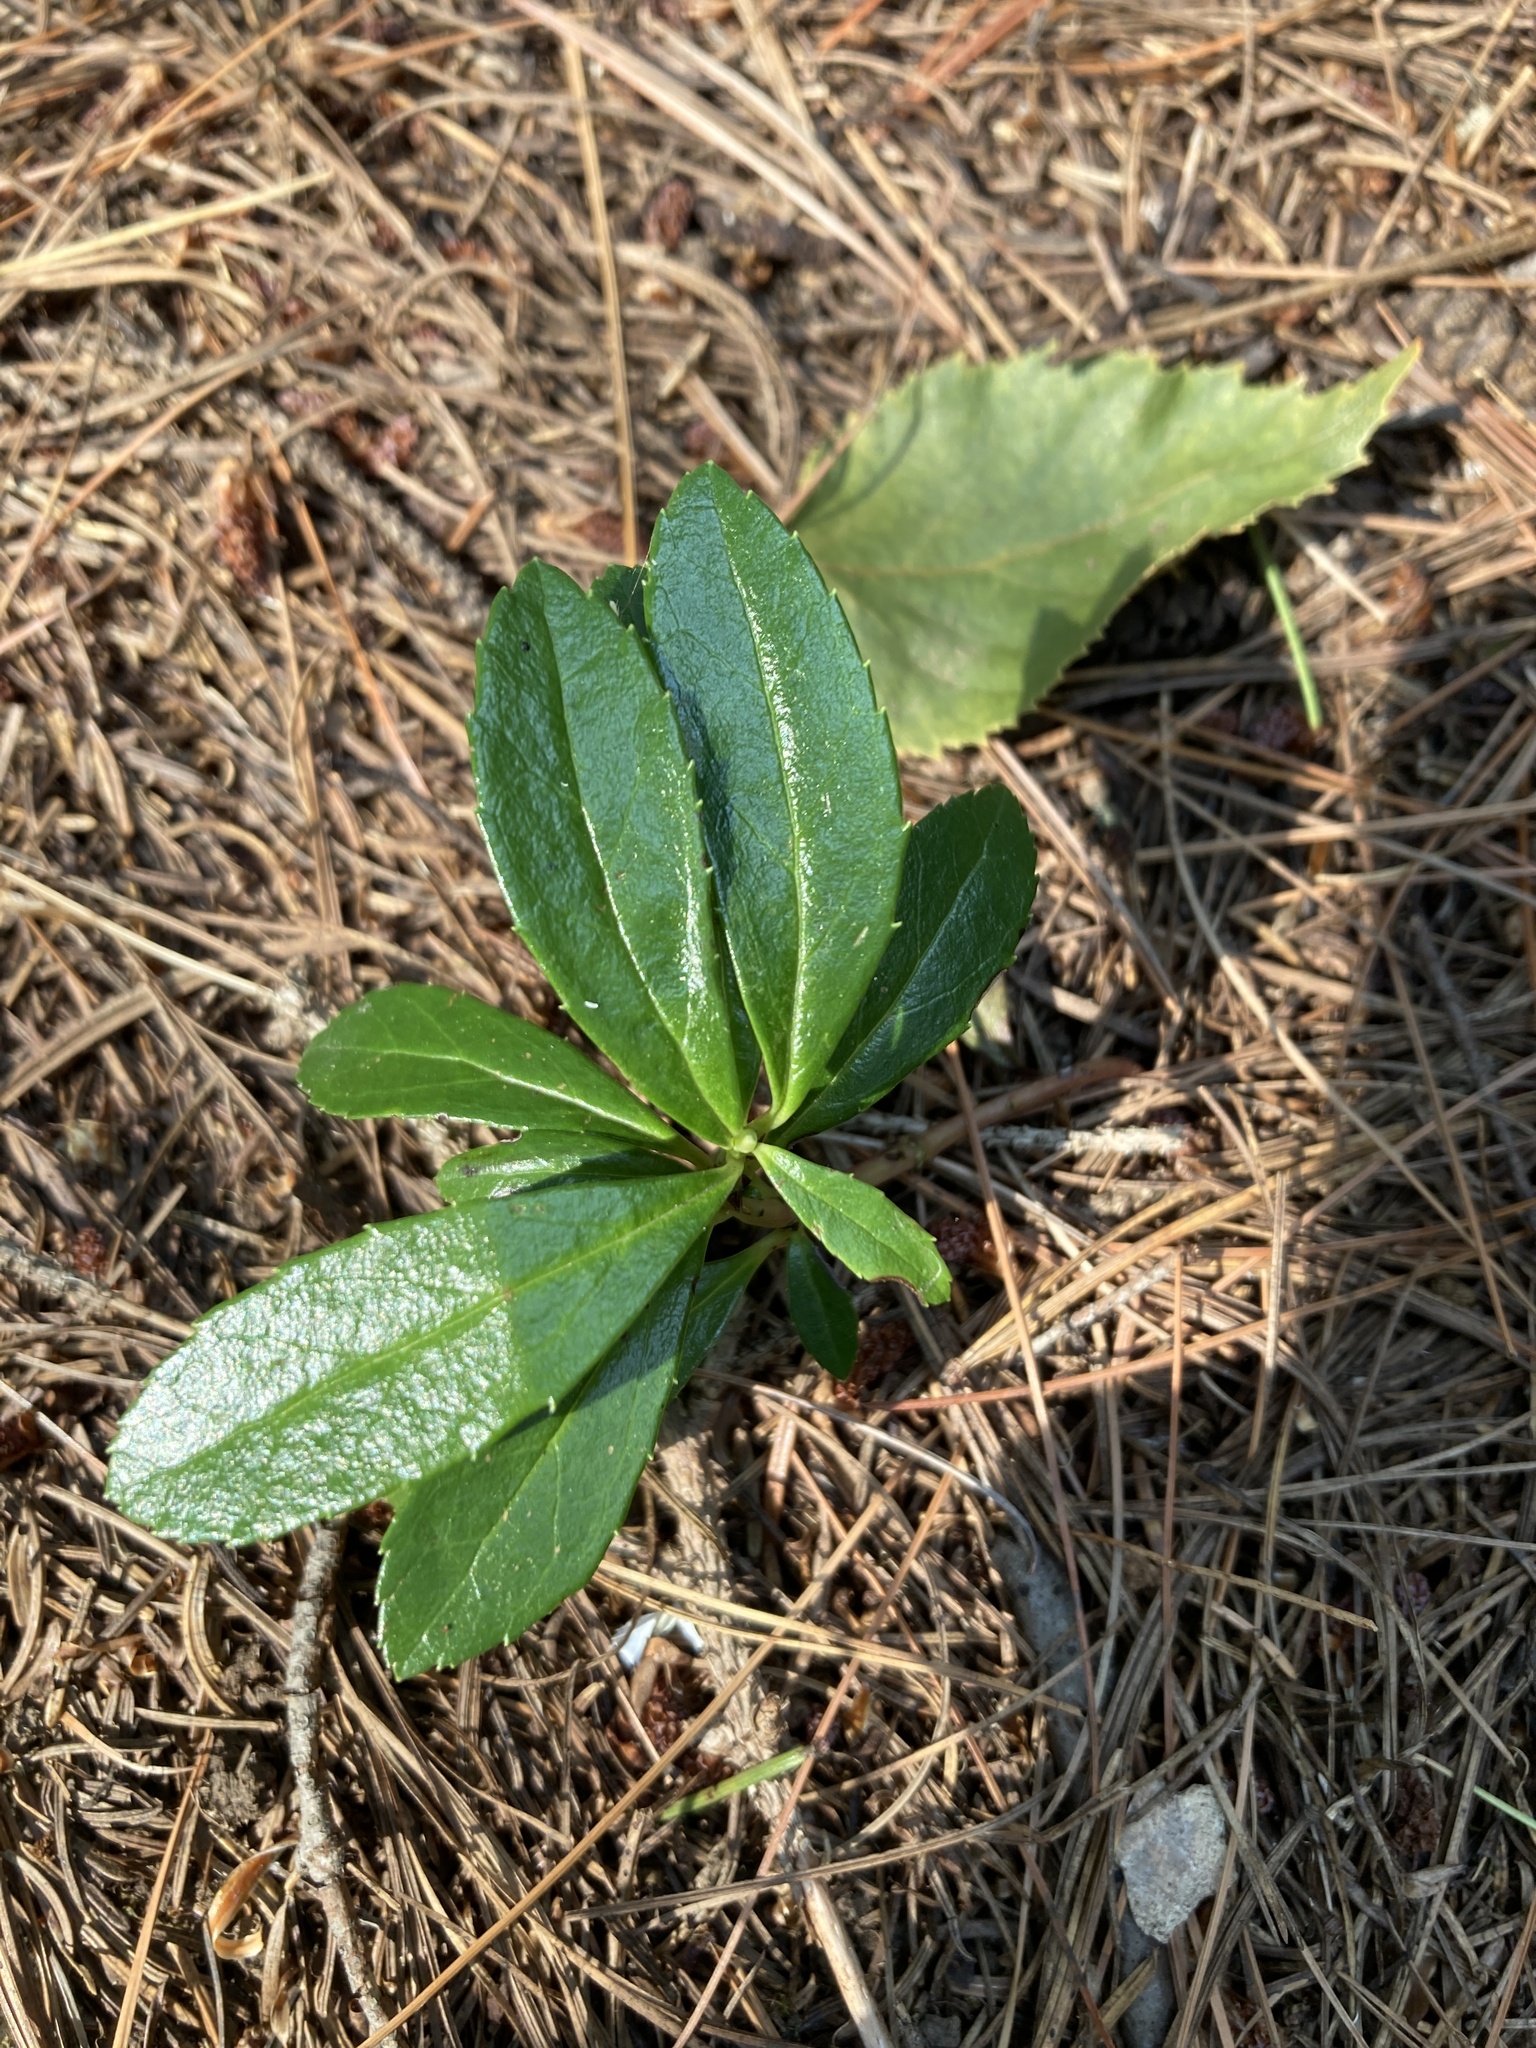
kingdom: Plantae
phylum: Tracheophyta
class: Magnoliopsida
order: Ericales
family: Ericaceae
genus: Chimaphila
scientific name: Chimaphila umbellata
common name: Pipsissewa
